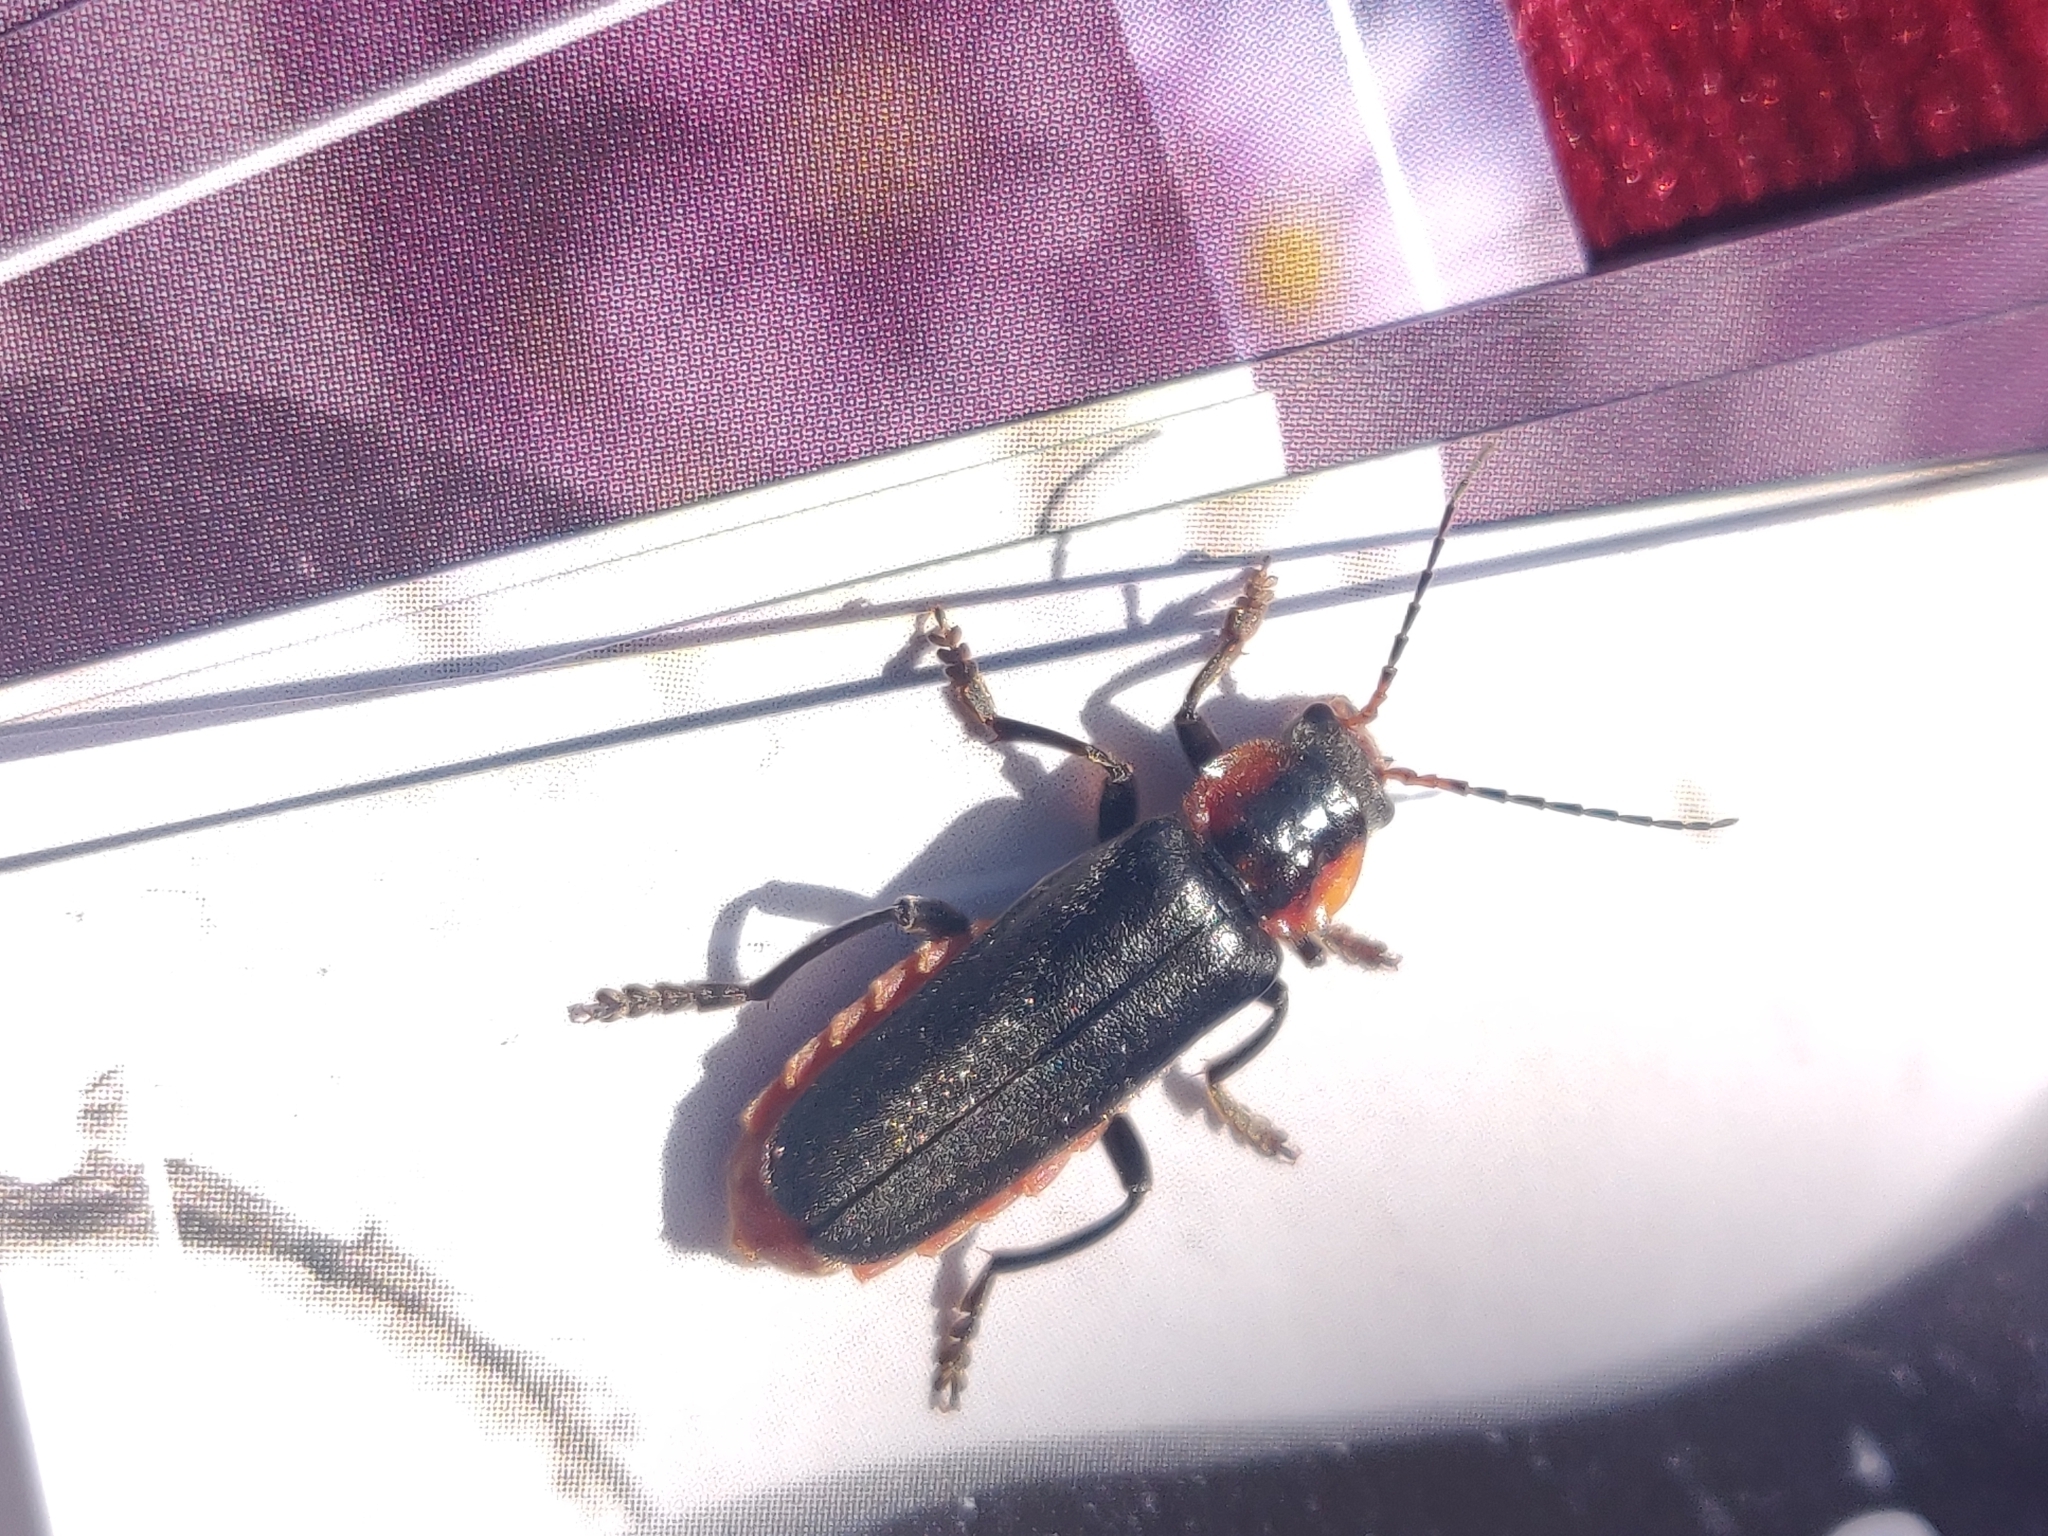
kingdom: Animalia
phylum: Arthropoda
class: Insecta
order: Coleoptera
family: Cantharidae
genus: Cantharis
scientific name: Cantharis fusca
